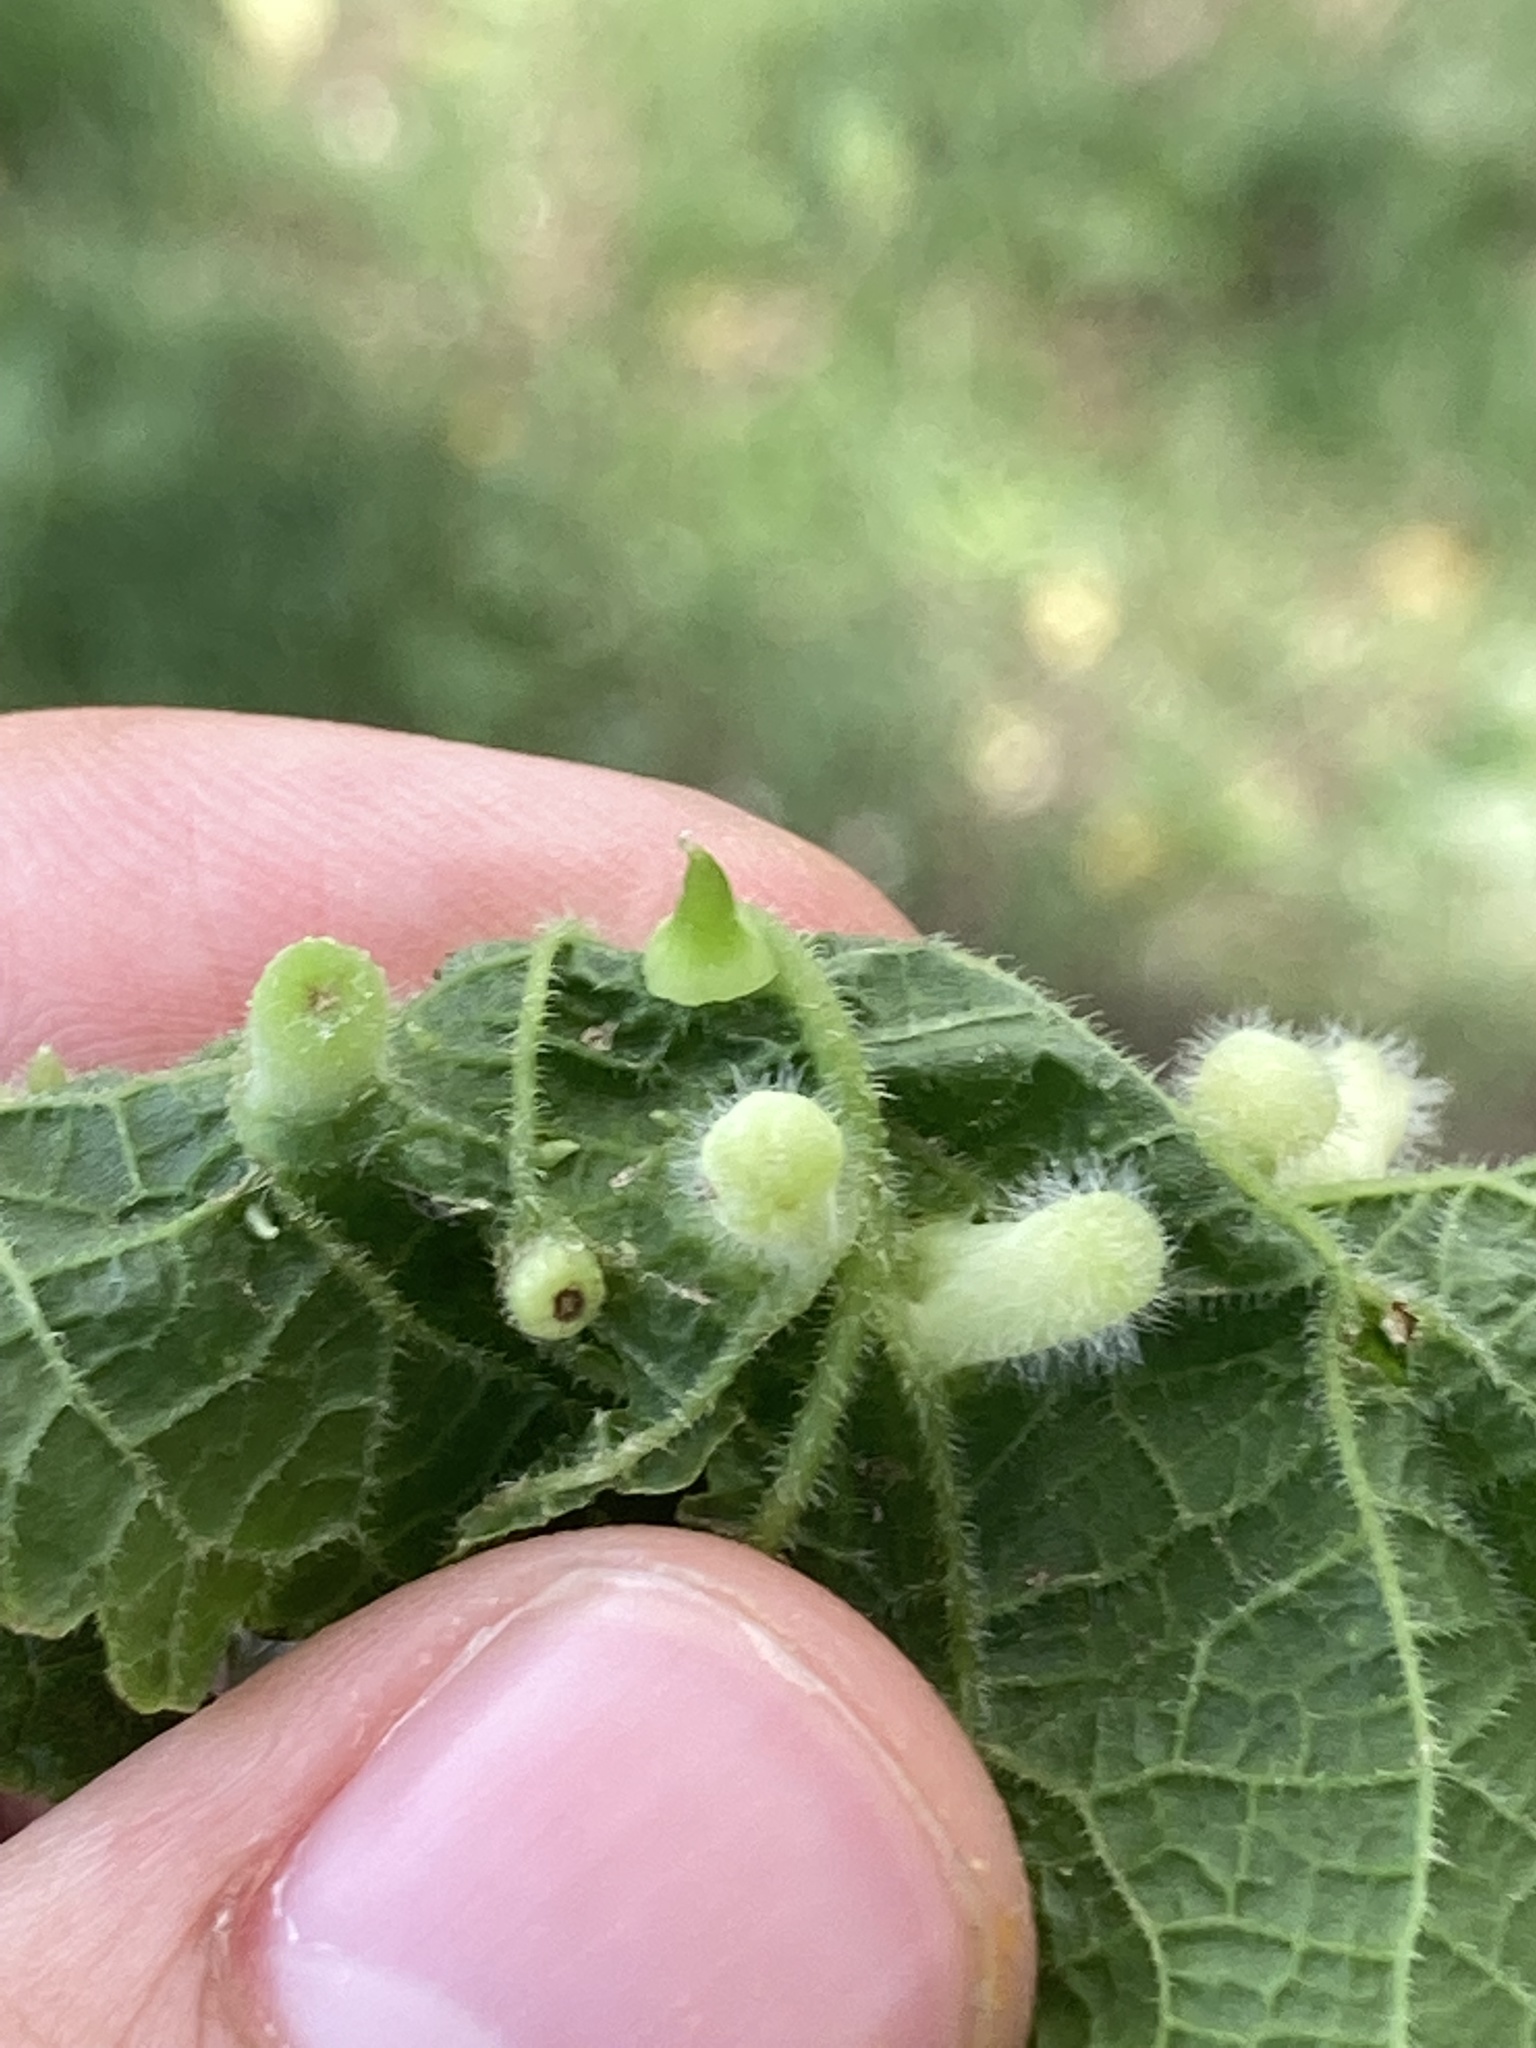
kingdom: Animalia
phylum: Arthropoda
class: Insecta
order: Diptera
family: Cecidomyiidae
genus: Celticecis
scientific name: Celticecis spiniformis
